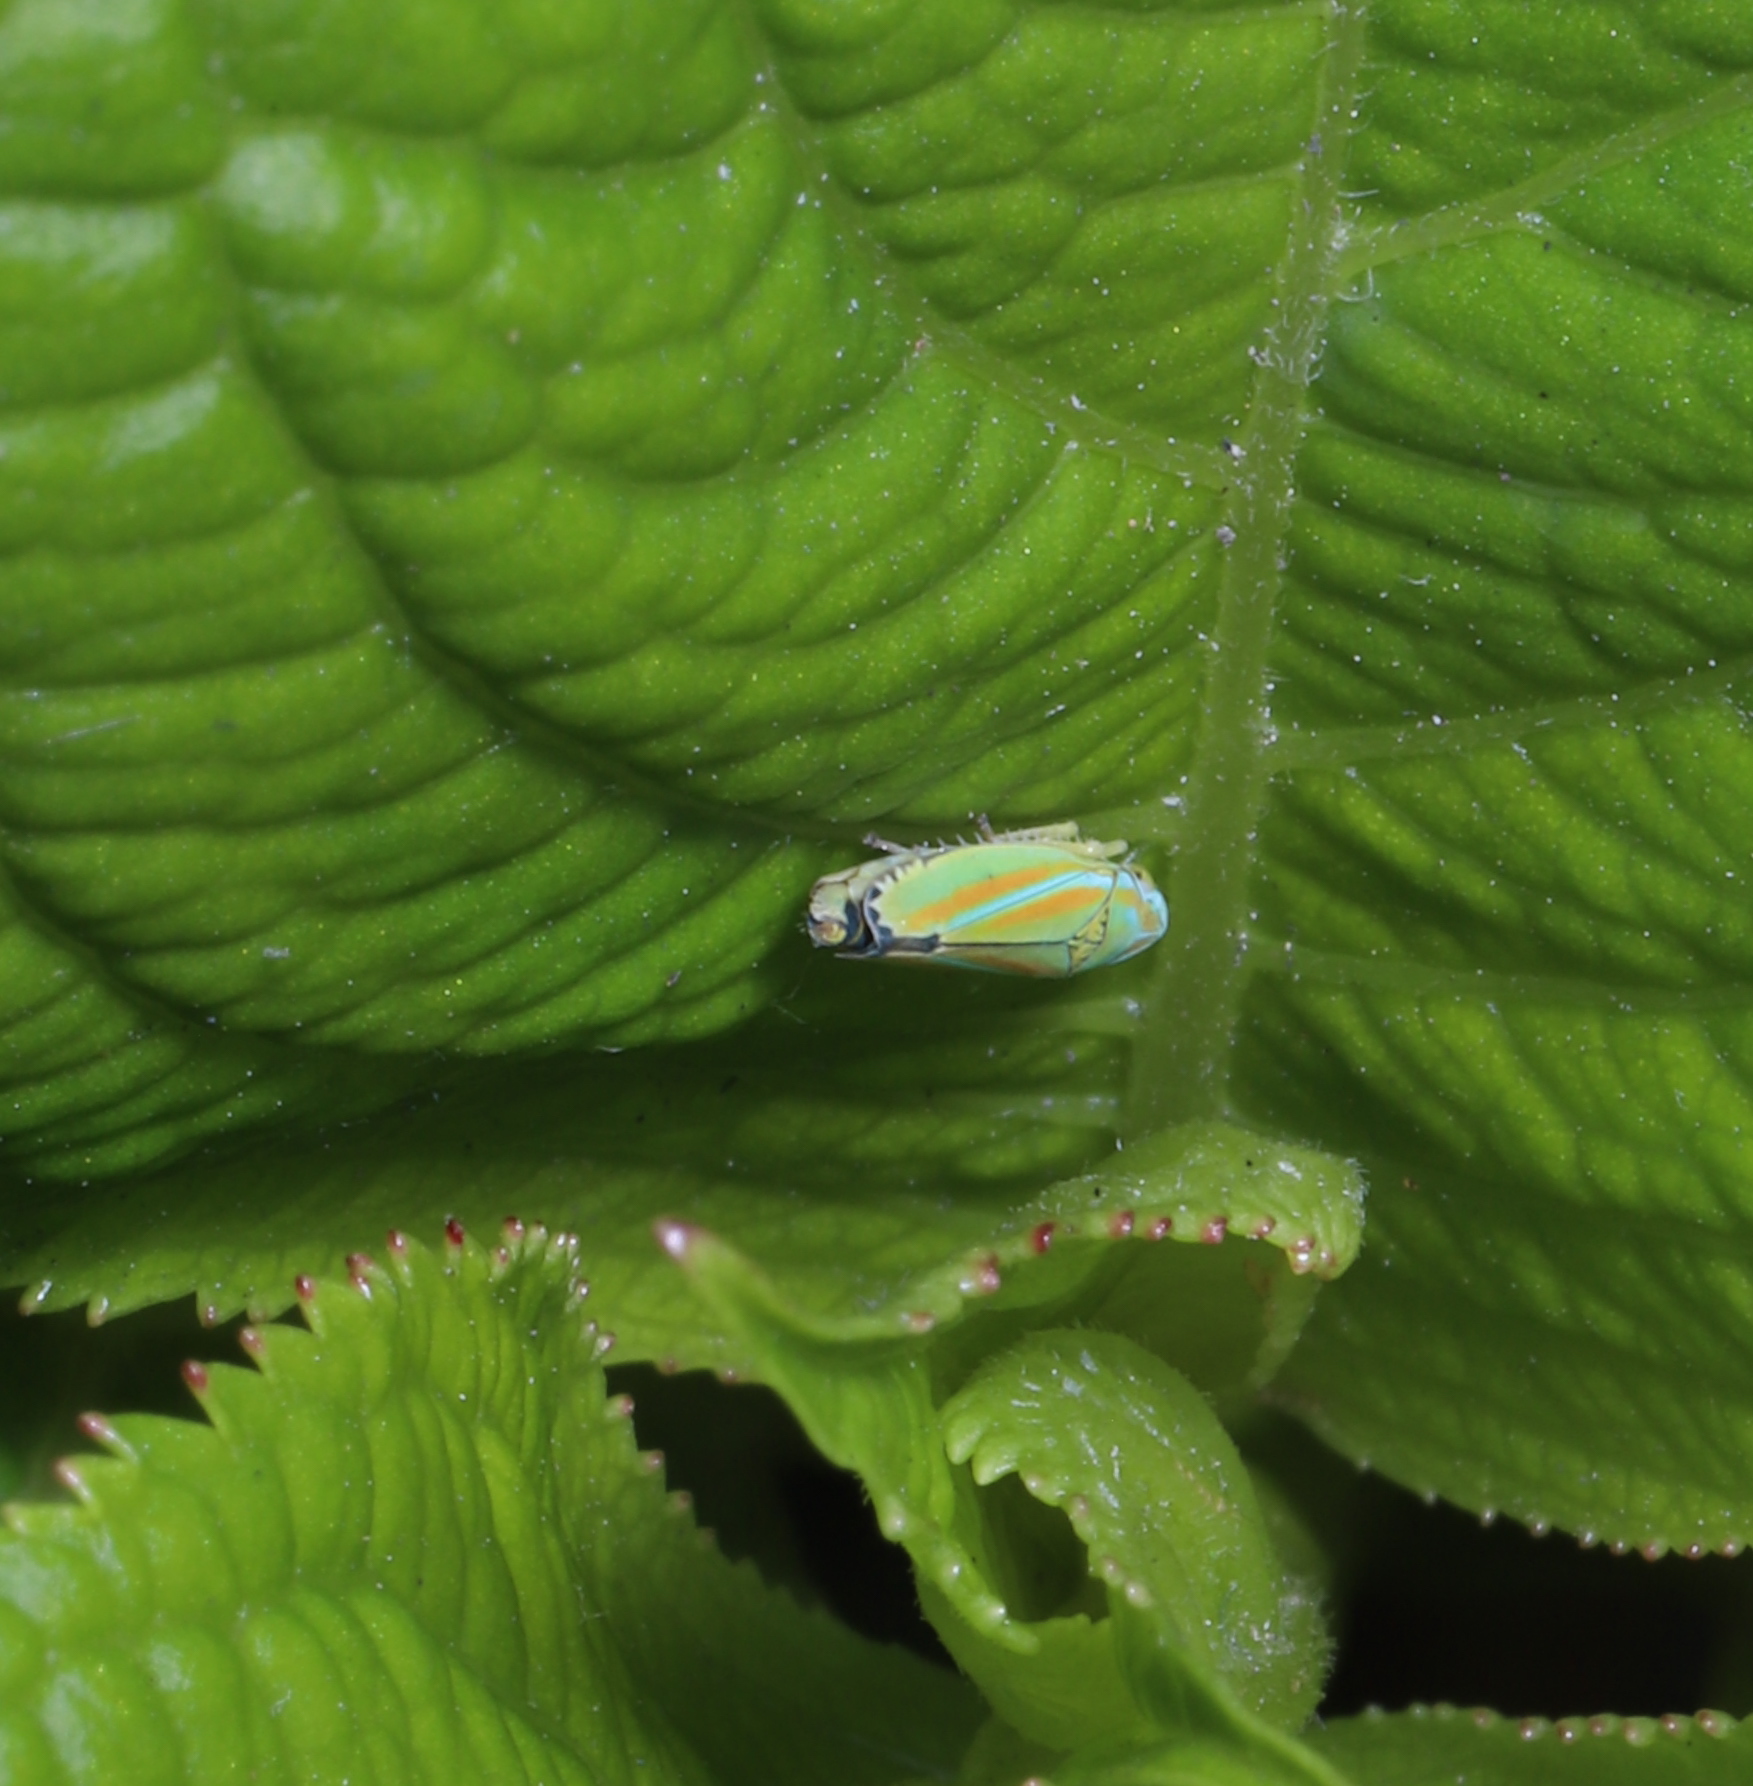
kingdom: Animalia
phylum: Arthropoda
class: Insecta
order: Hemiptera
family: Cicadellidae
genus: Graphocephala
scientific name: Graphocephala versuta
